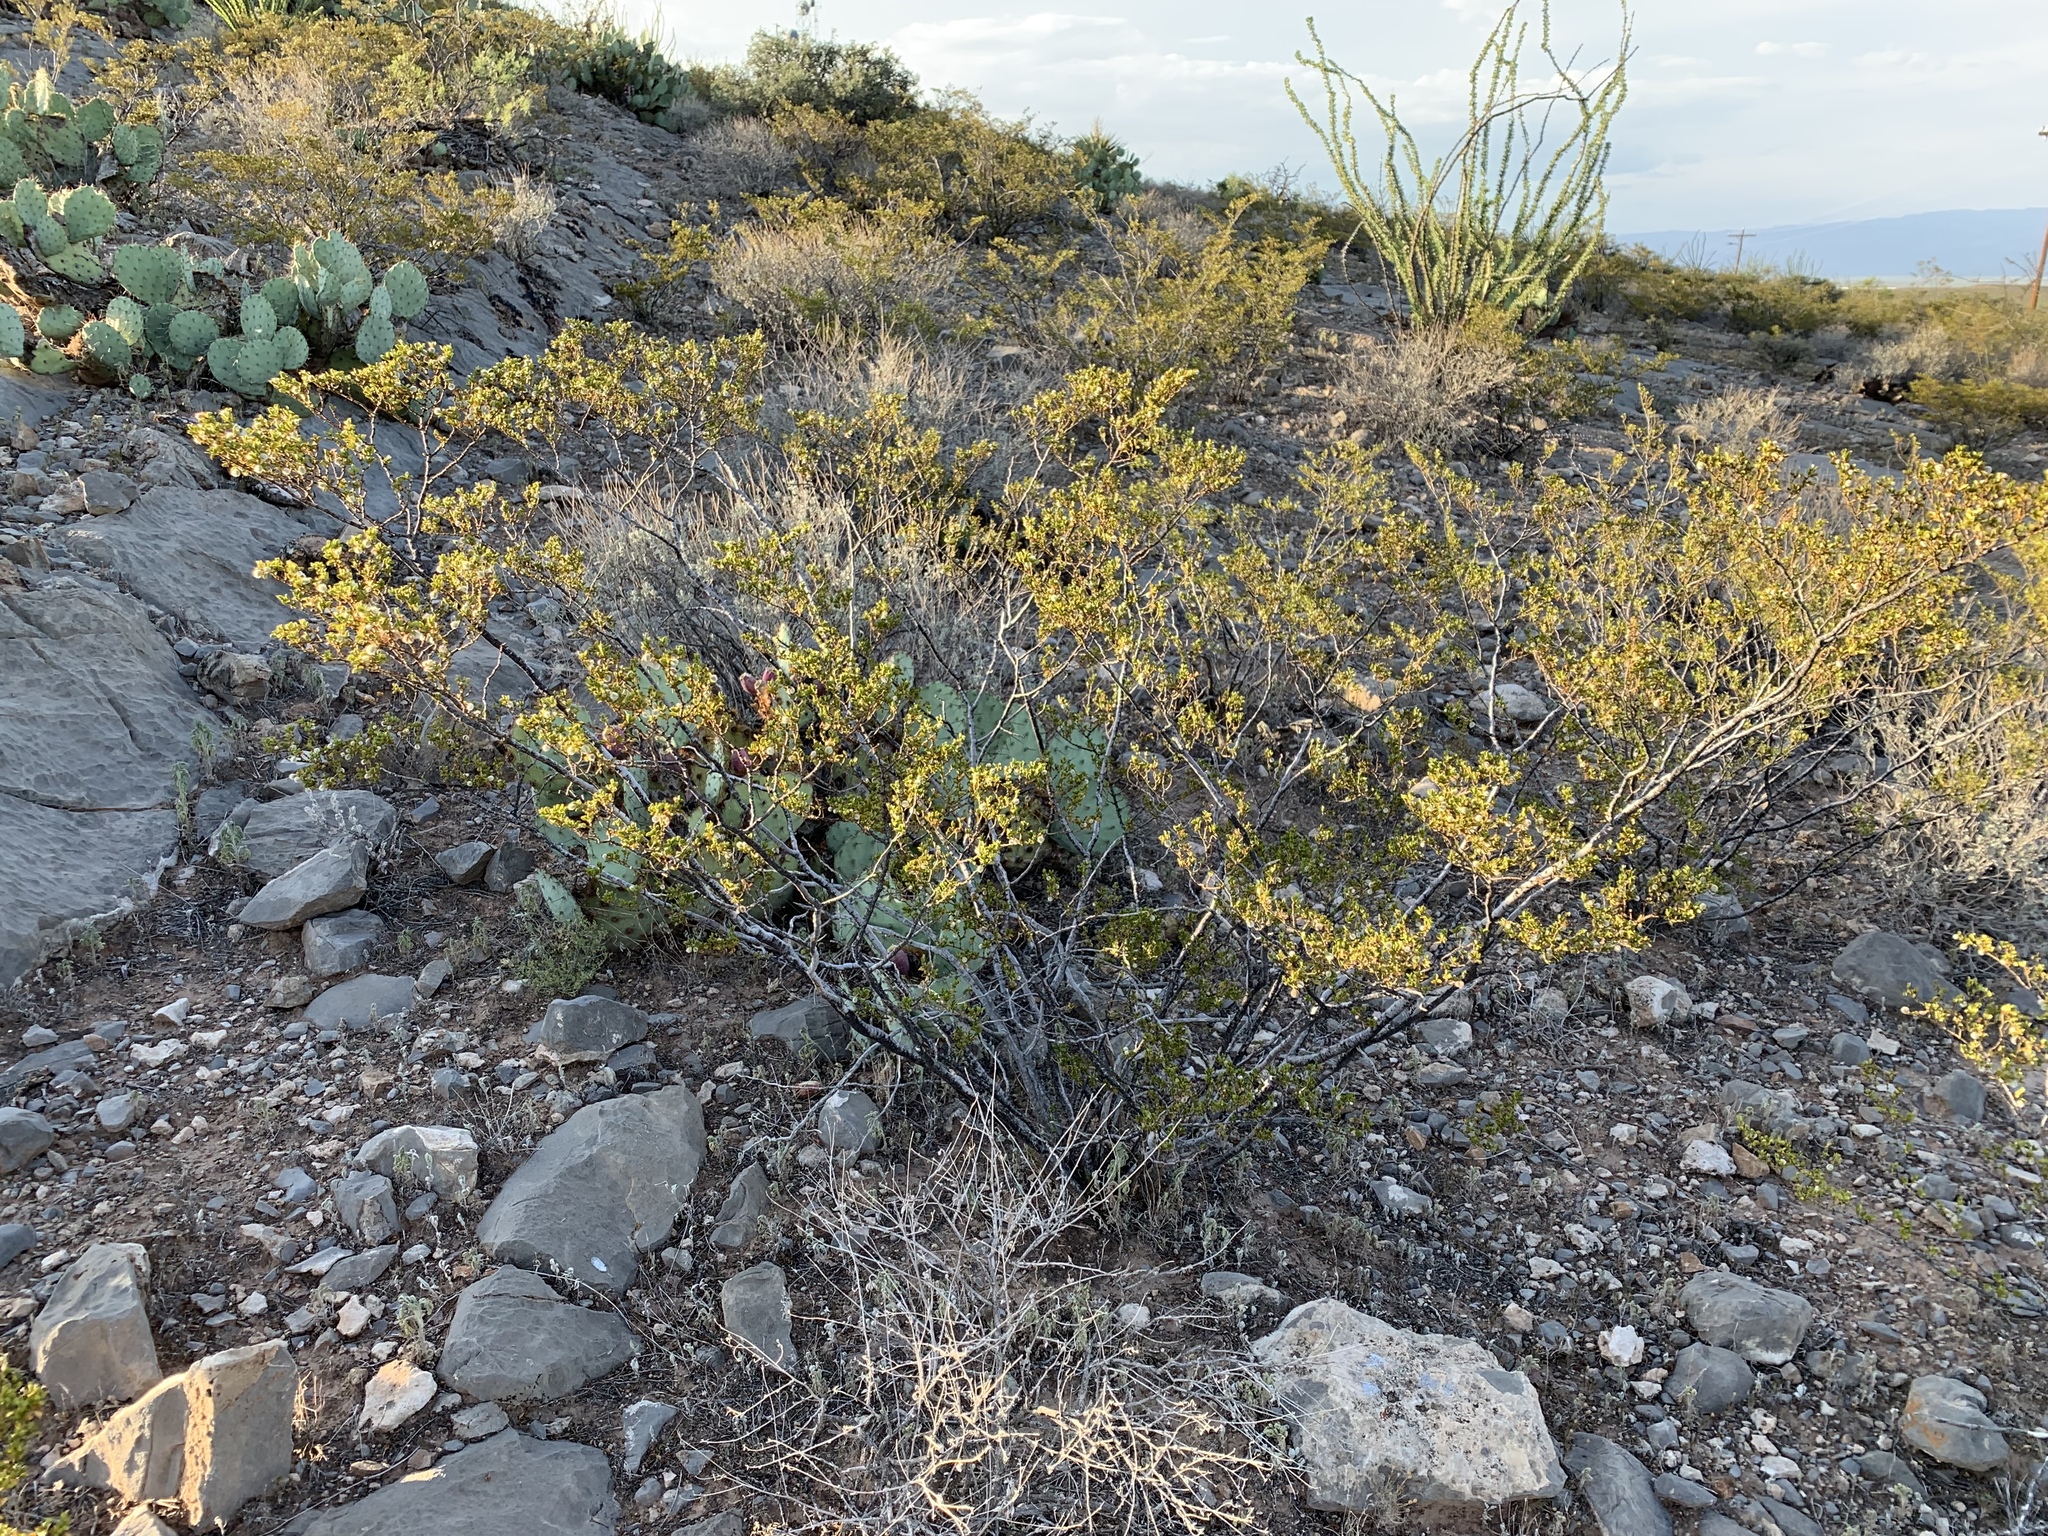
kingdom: Plantae
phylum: Tracheophyta
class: Magnoliopsida
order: Zygophyllales
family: Zygophyllaceae
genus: Larrea
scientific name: Larrea tridentata
